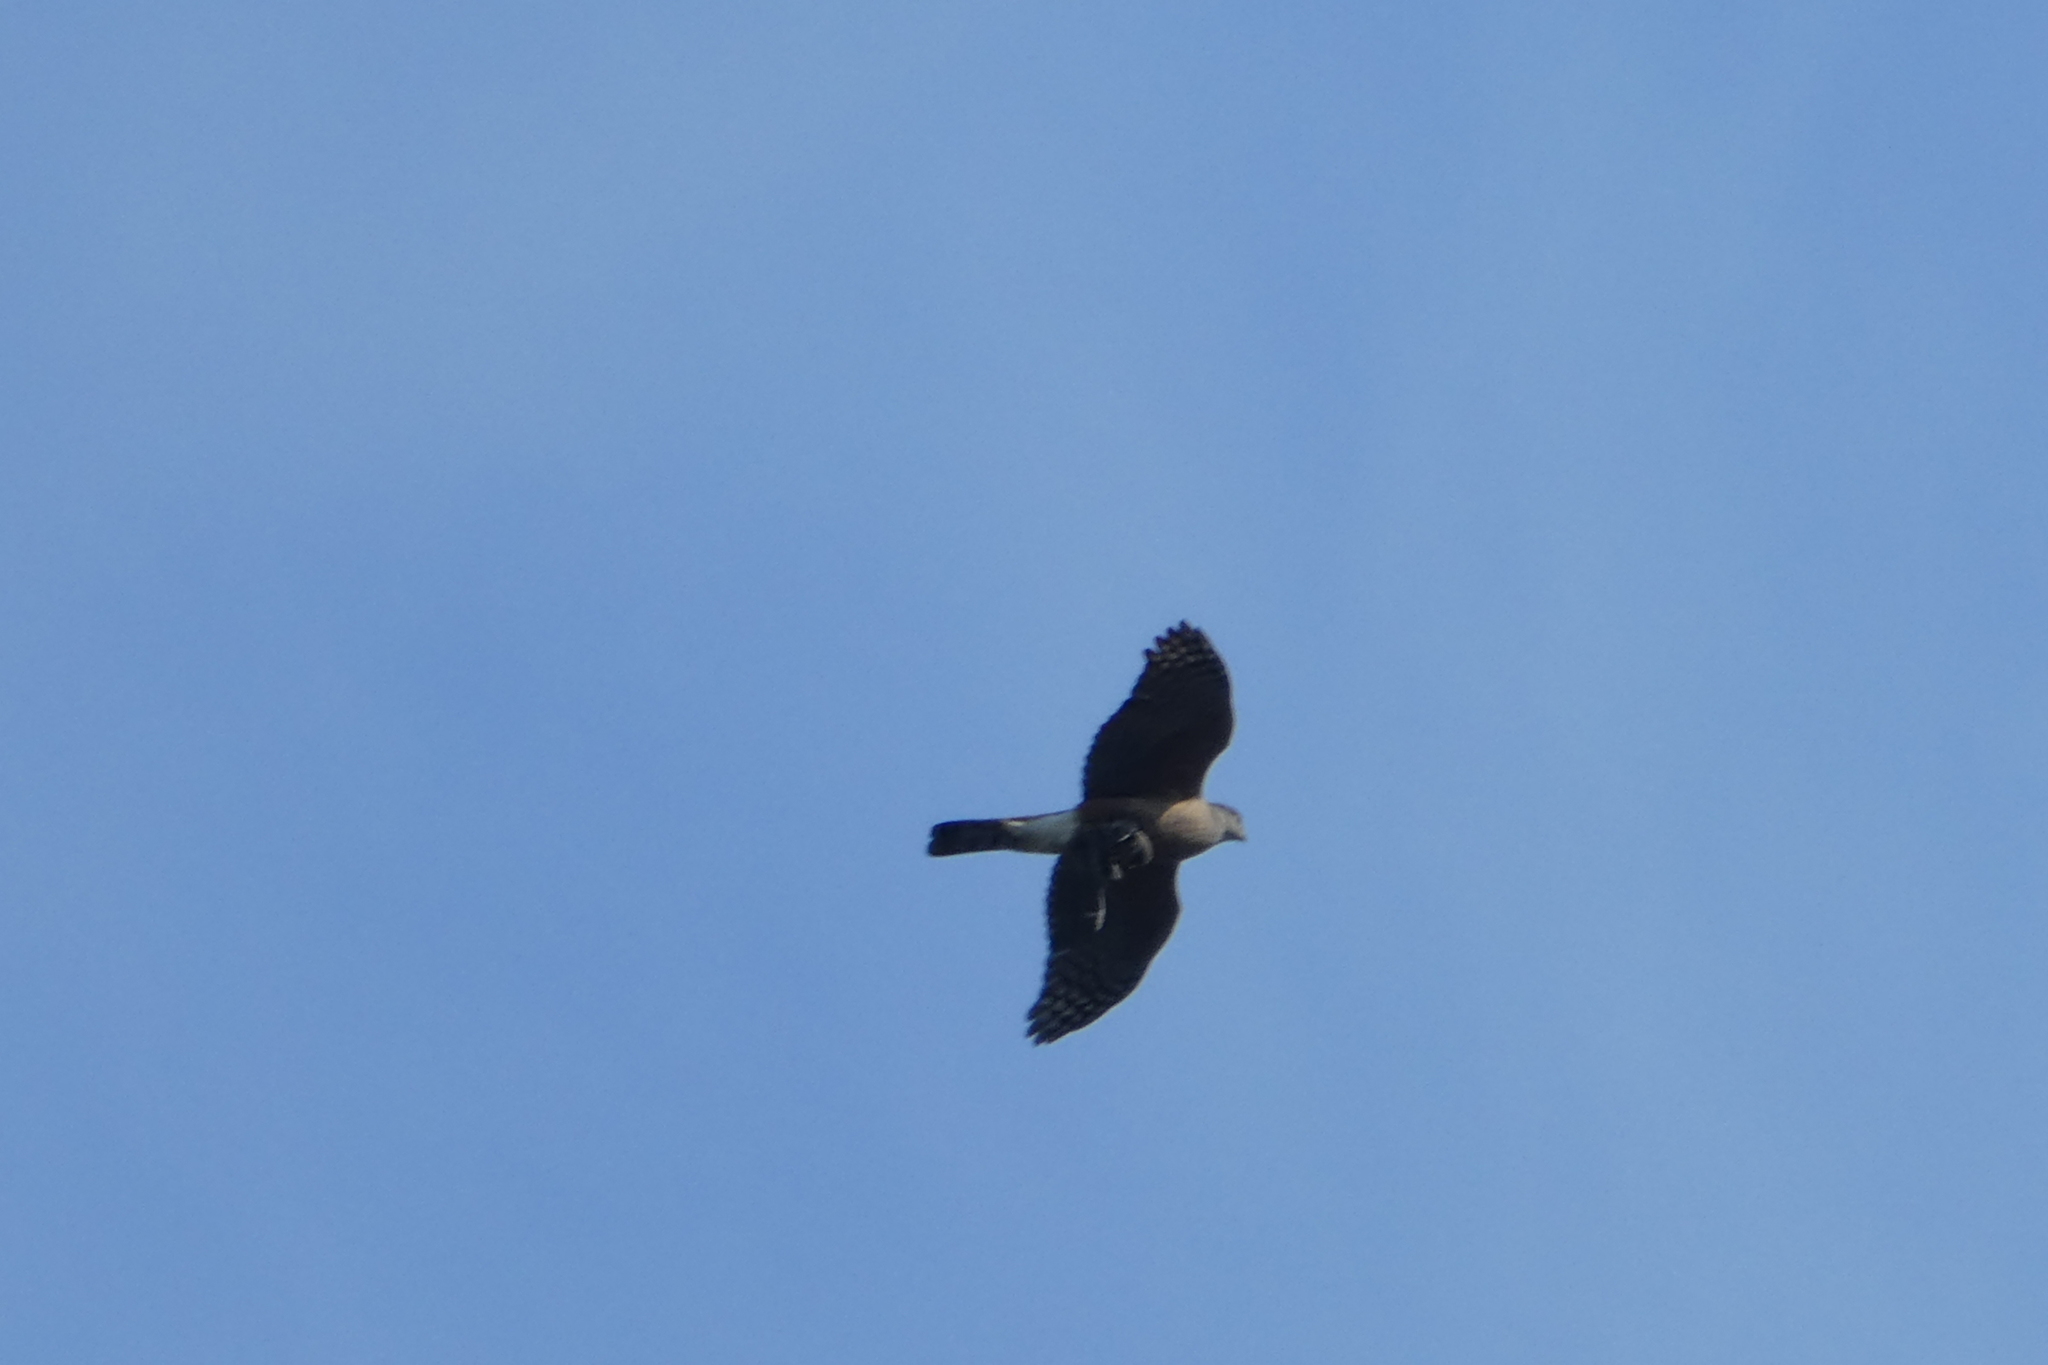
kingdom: Animalia
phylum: Chordata
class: Aves
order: Accipitriformes
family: Accipitridae
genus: Accipiter
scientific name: Accipiter cooperii
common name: Cooper's hawk
